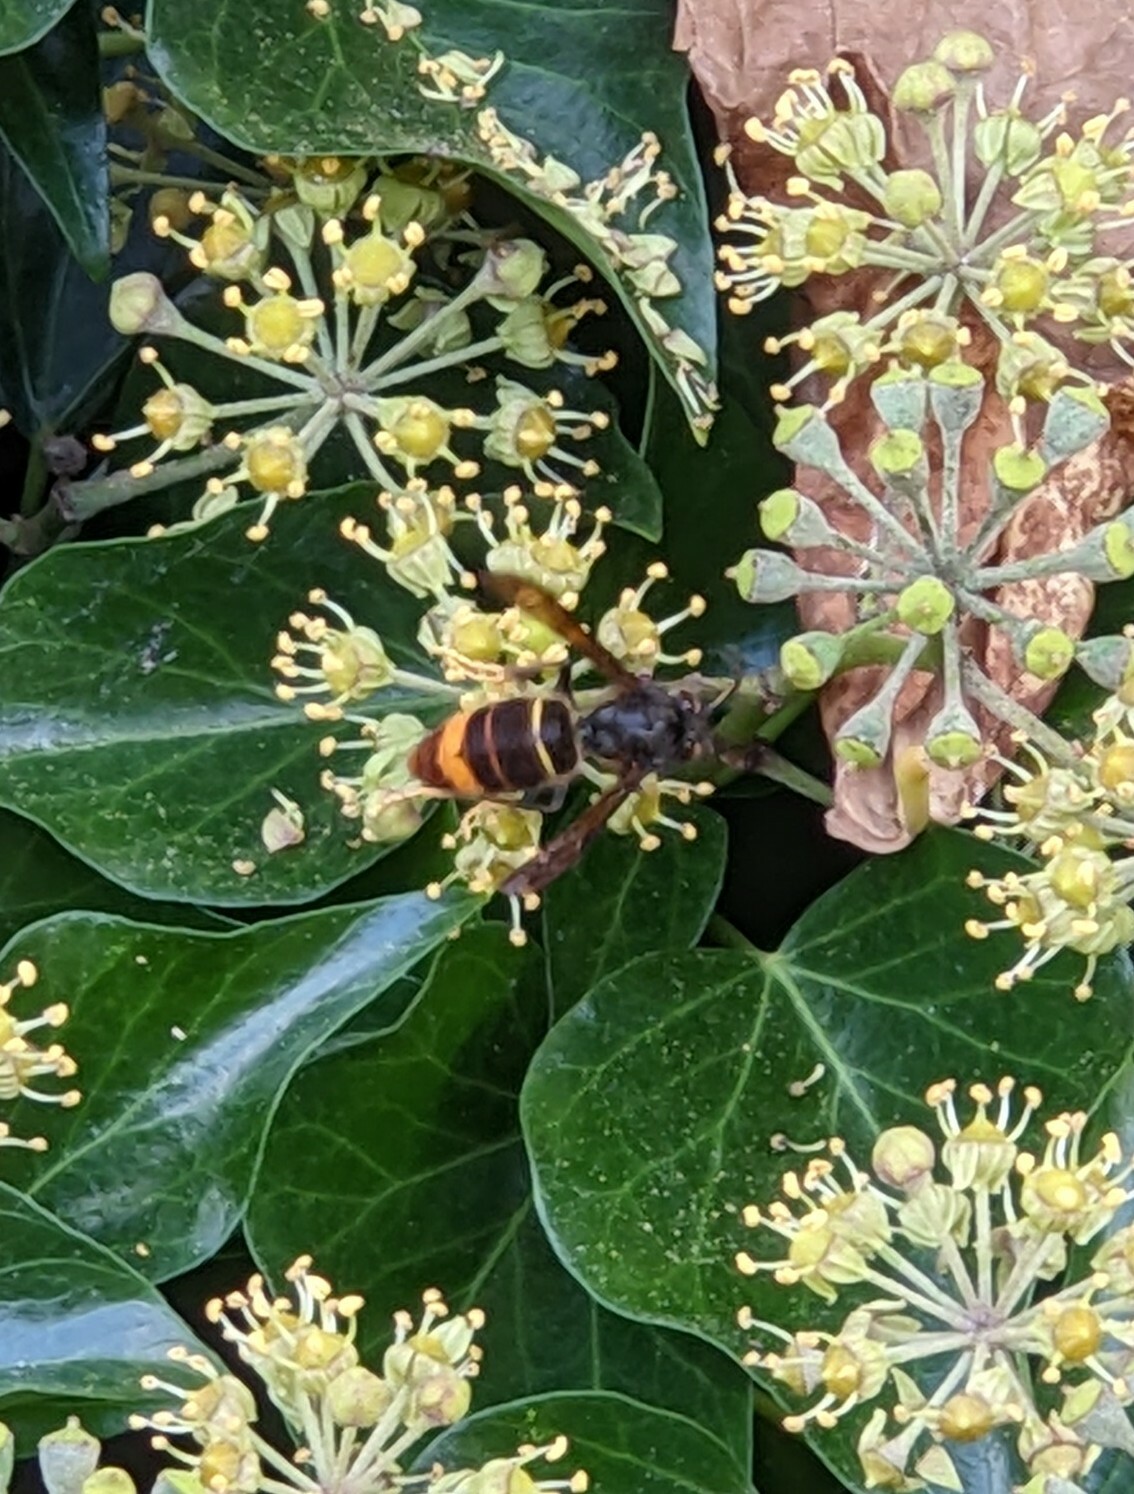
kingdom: Animalia
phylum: Arthropoda
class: Insecta
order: Hymenoptera
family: Vespidae
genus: Vespa
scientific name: Vespa velutina
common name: Asian hornet
